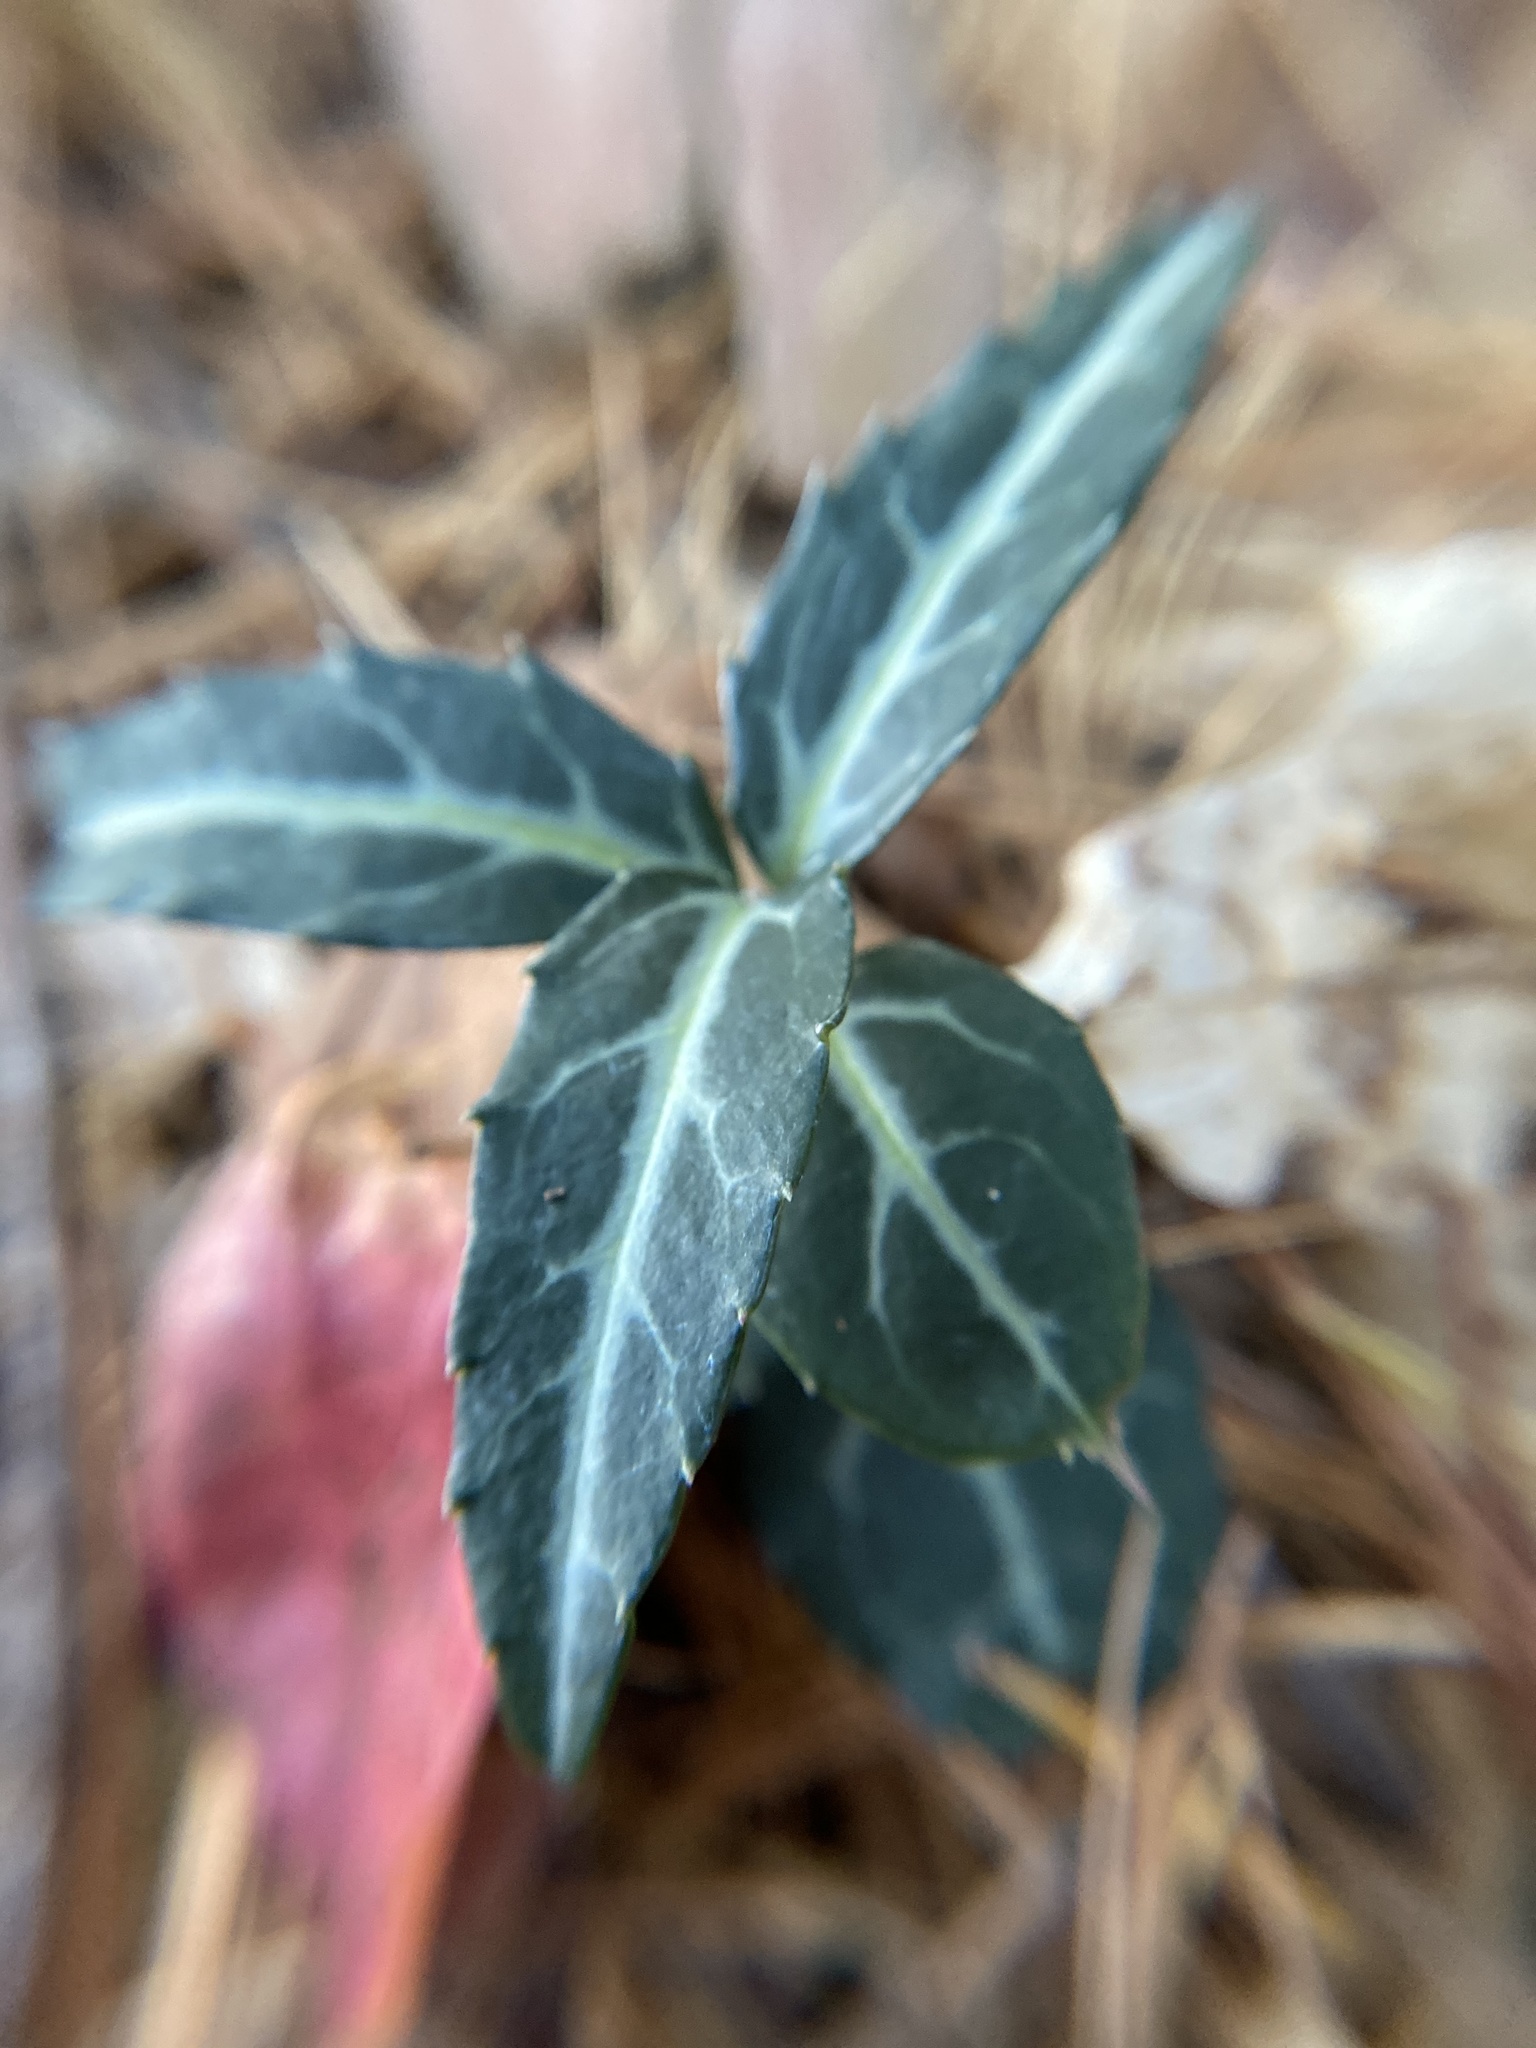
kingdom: Plantae
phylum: Tracheophyta
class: Magnoliopsida
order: Ericales
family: Ericaceae
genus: Chimaphila
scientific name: Chimaphila maculata
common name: Spotted pipsissewa
